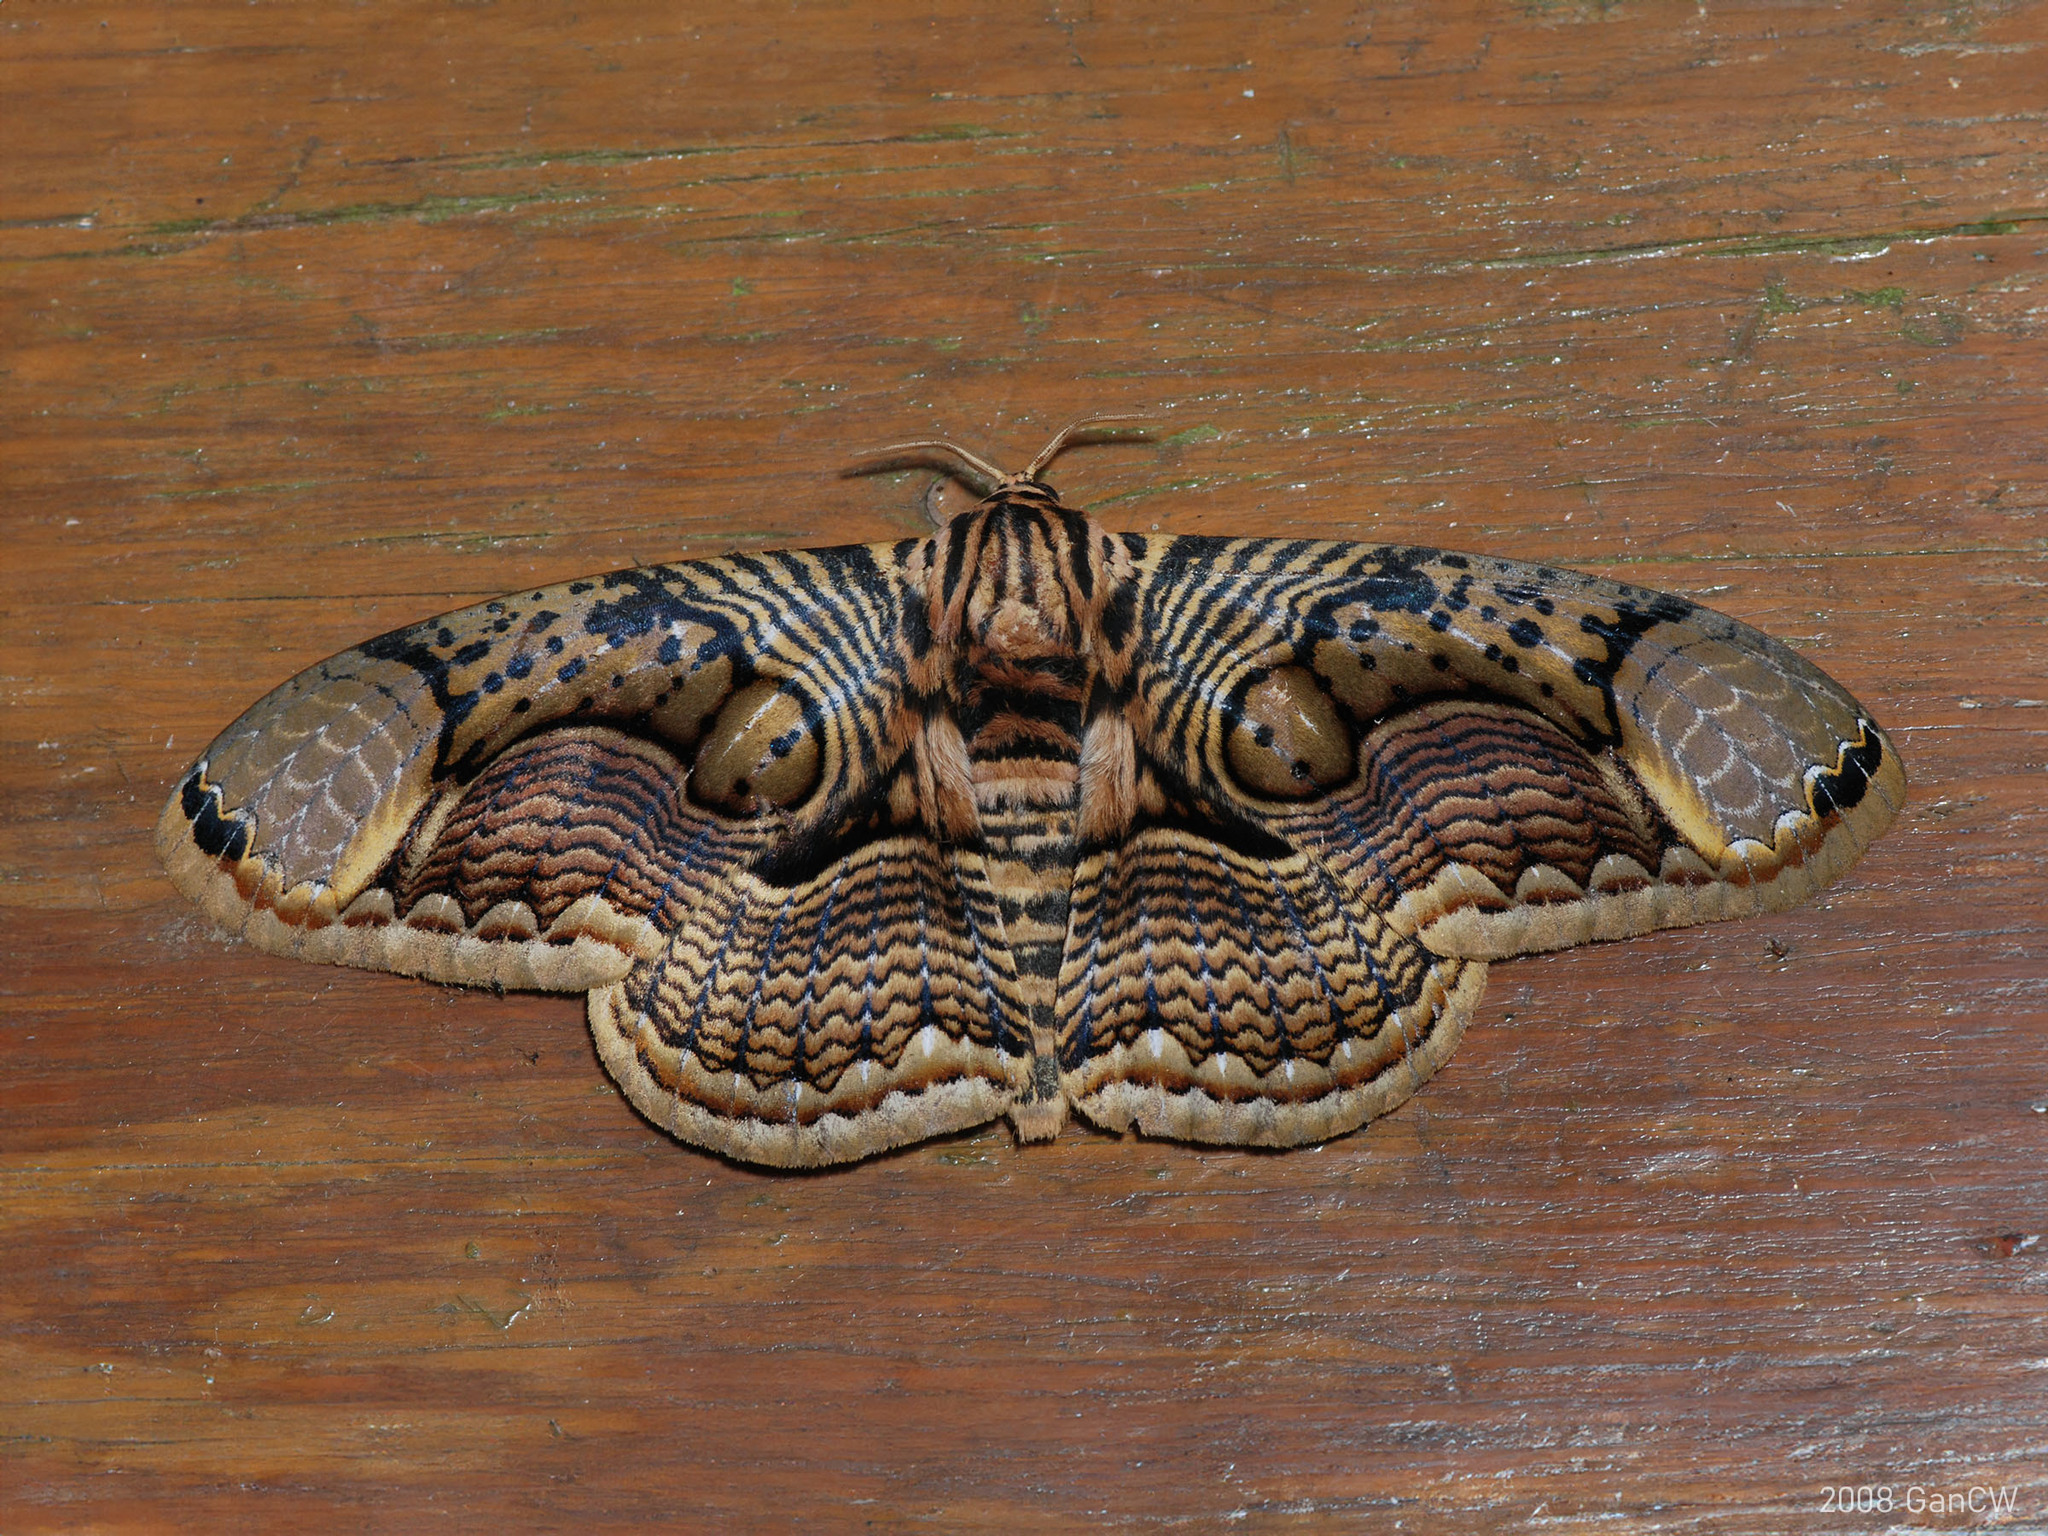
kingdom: Animalia
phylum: Arthropoda
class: Insecta
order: Lepidoptera
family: Brahmaeidae
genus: Brahmaea
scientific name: Brahmaea hearseyi
